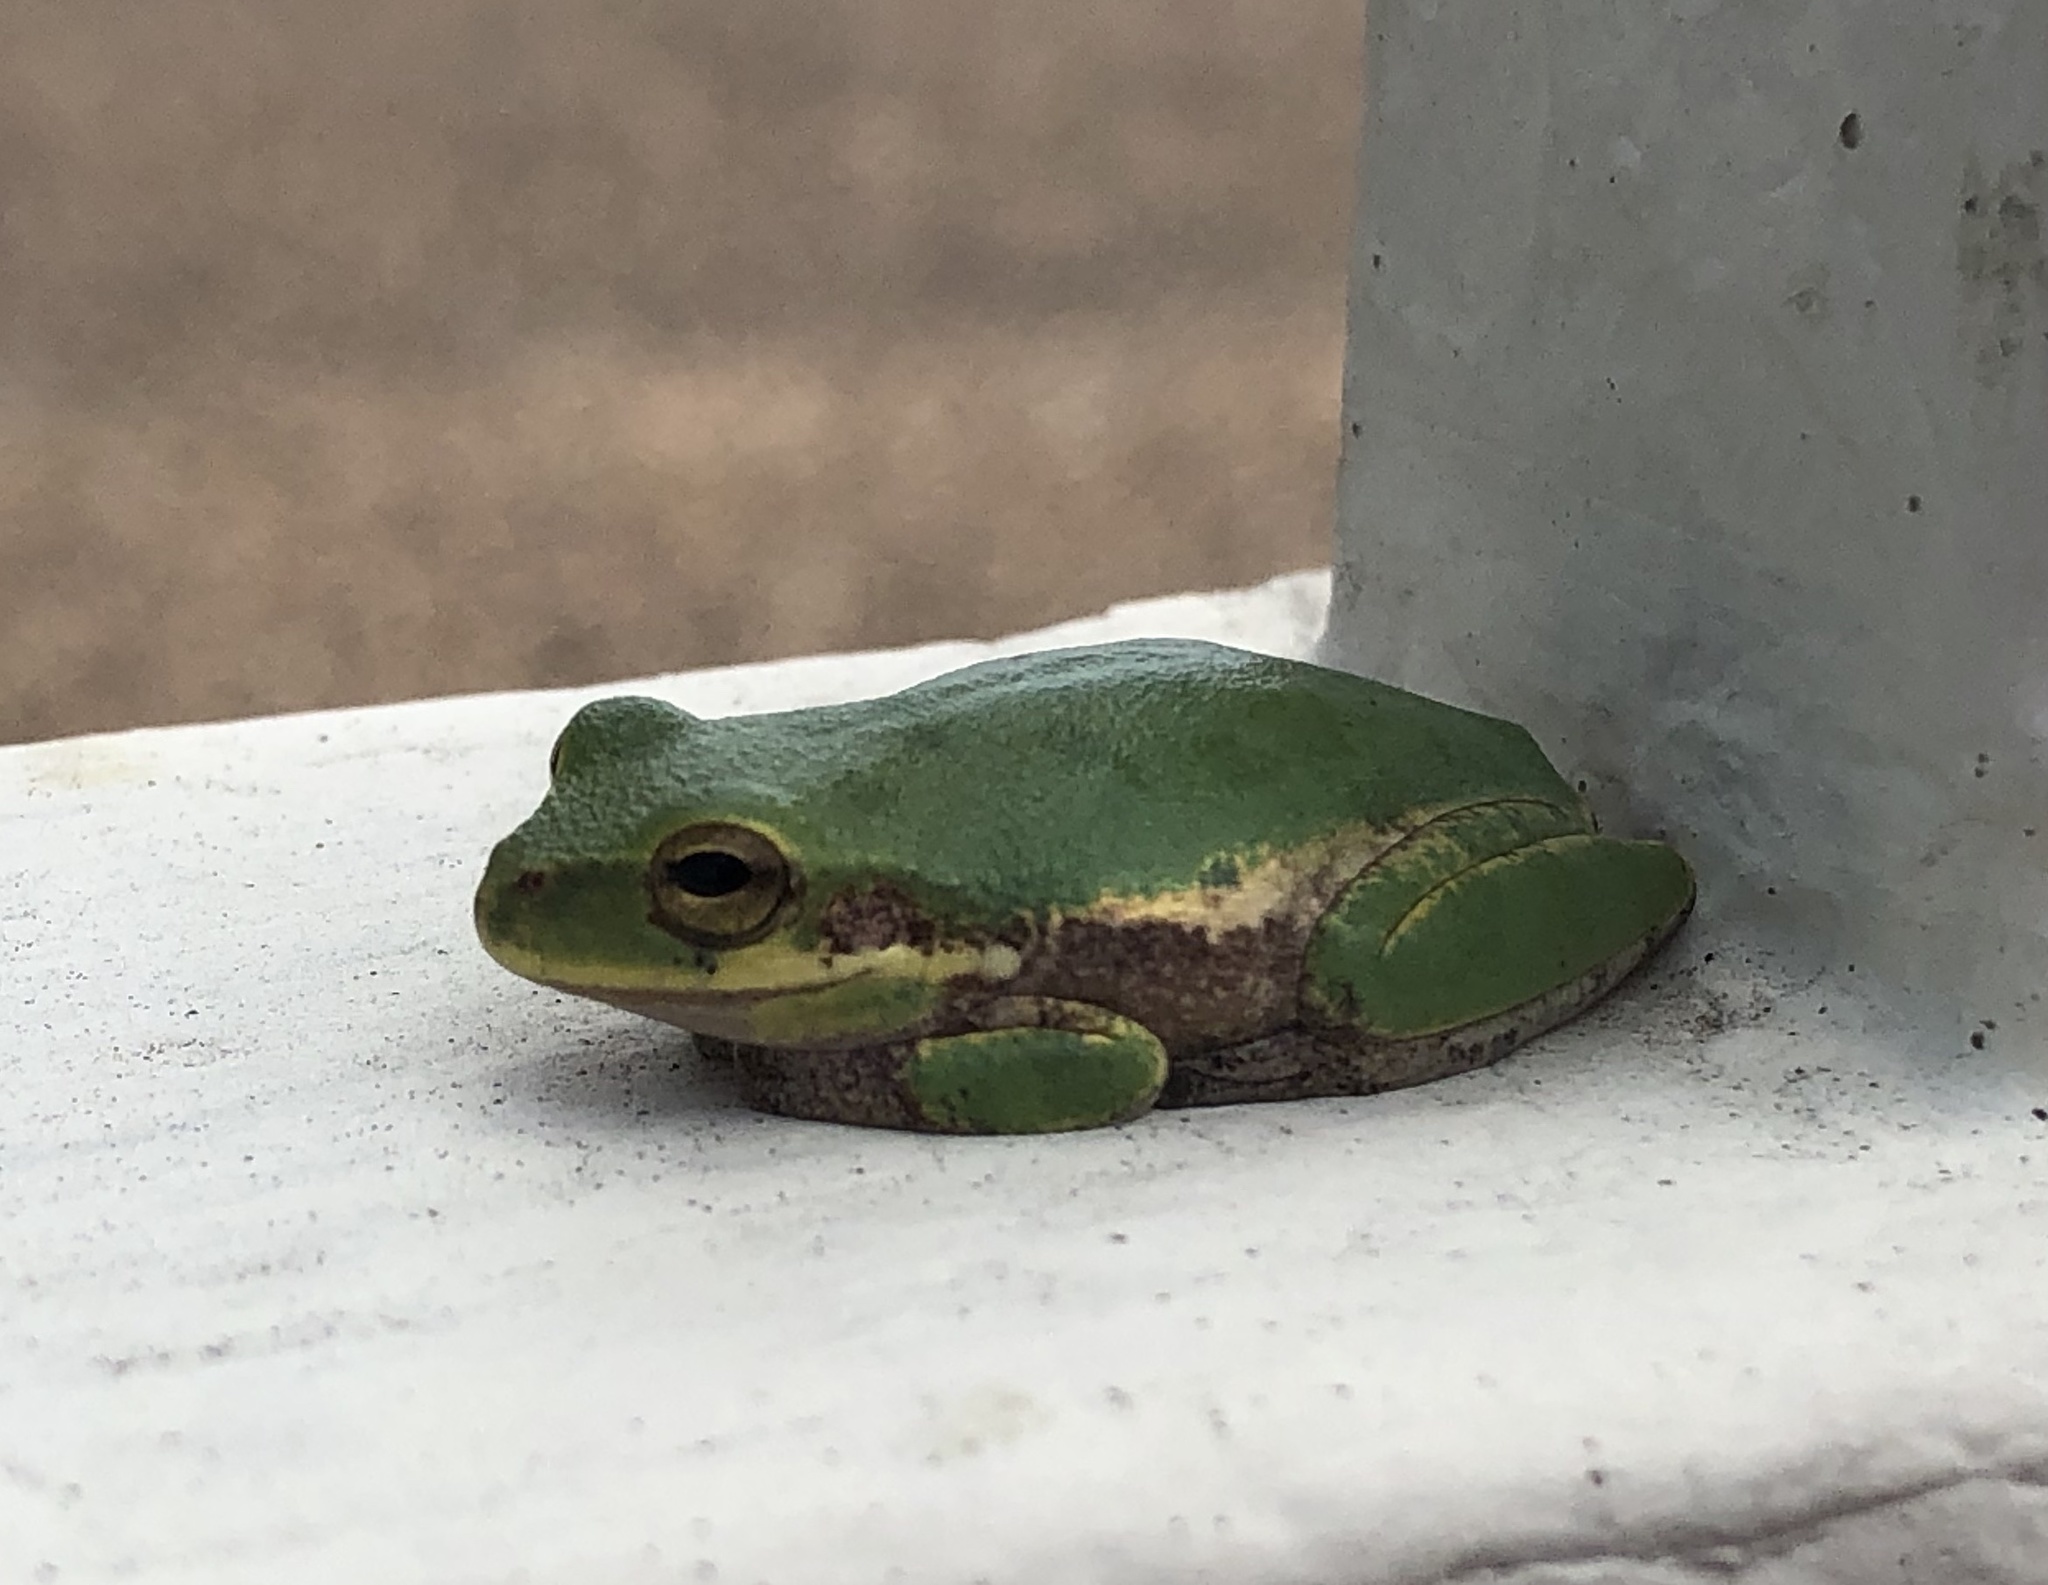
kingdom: Animalia
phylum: Chordata
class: Amphibia
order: Anura
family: Hylidae
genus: Dryophytes
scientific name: Dryophytes squirellus
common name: Squirrel treefrog
